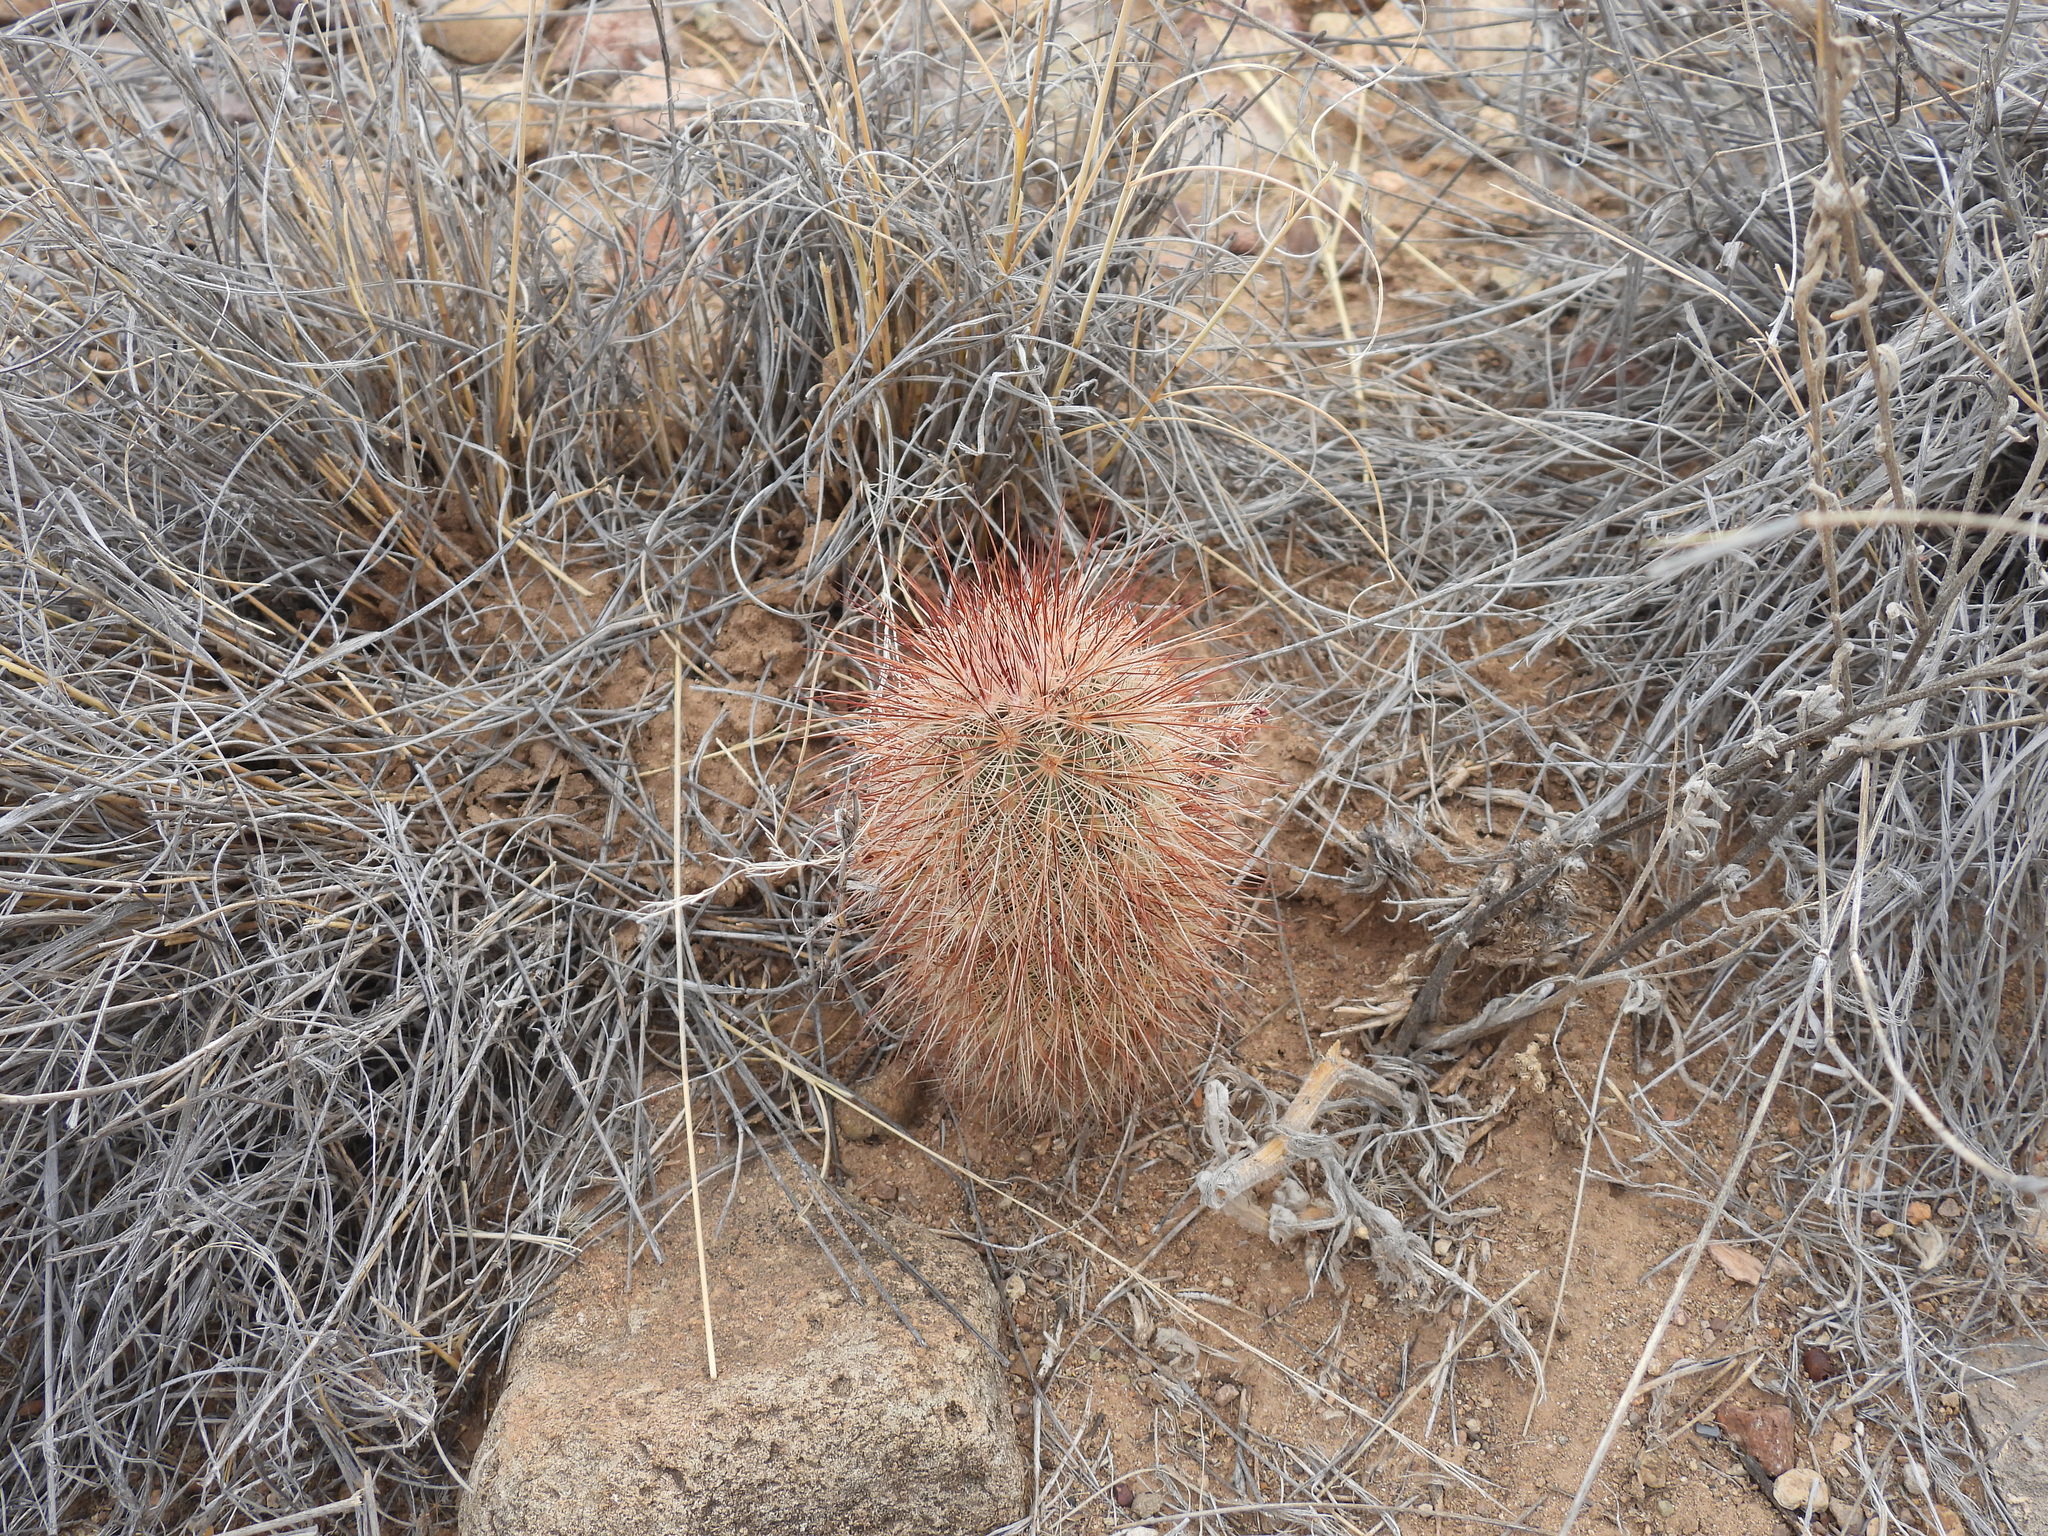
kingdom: Plantae
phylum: Tracheophyta
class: Magnoliopsida
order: Caryophyllales
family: Cactaceae
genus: Echinocereus
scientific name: Echinocereus russanthus
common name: Brownspine hedgehog cactus
